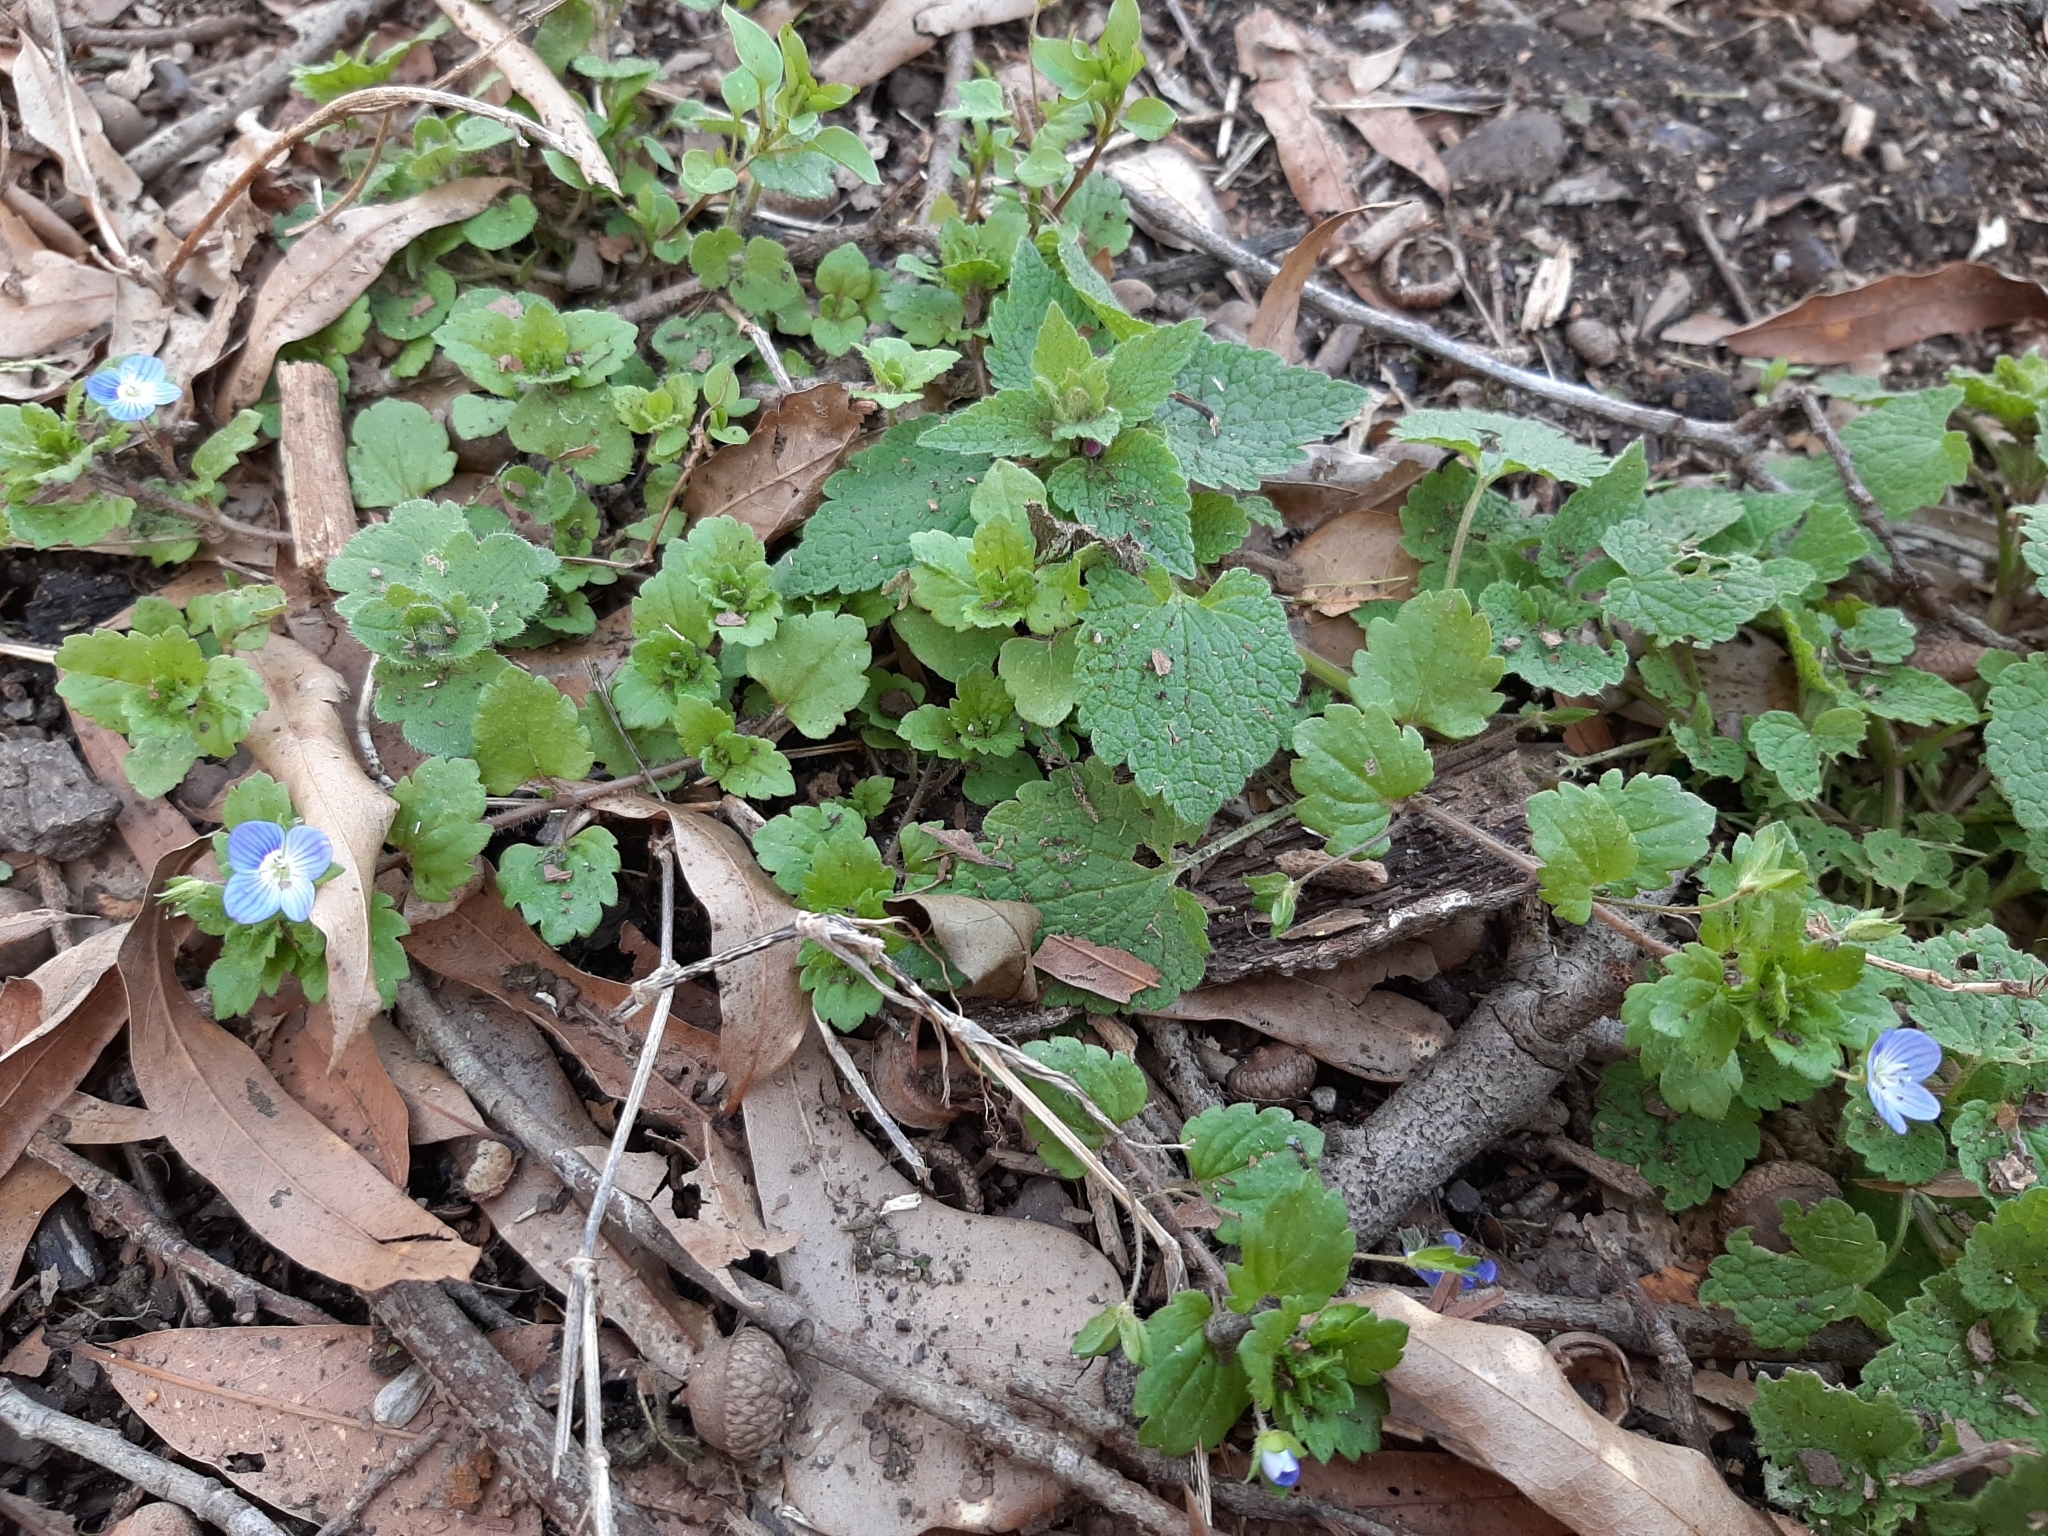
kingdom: Plantae
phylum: Tracheophyta
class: Magnoliopsida
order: Lamiales
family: Plantaginaceae
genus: Veronica
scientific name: Veronica persica
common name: Common field-speedwell
